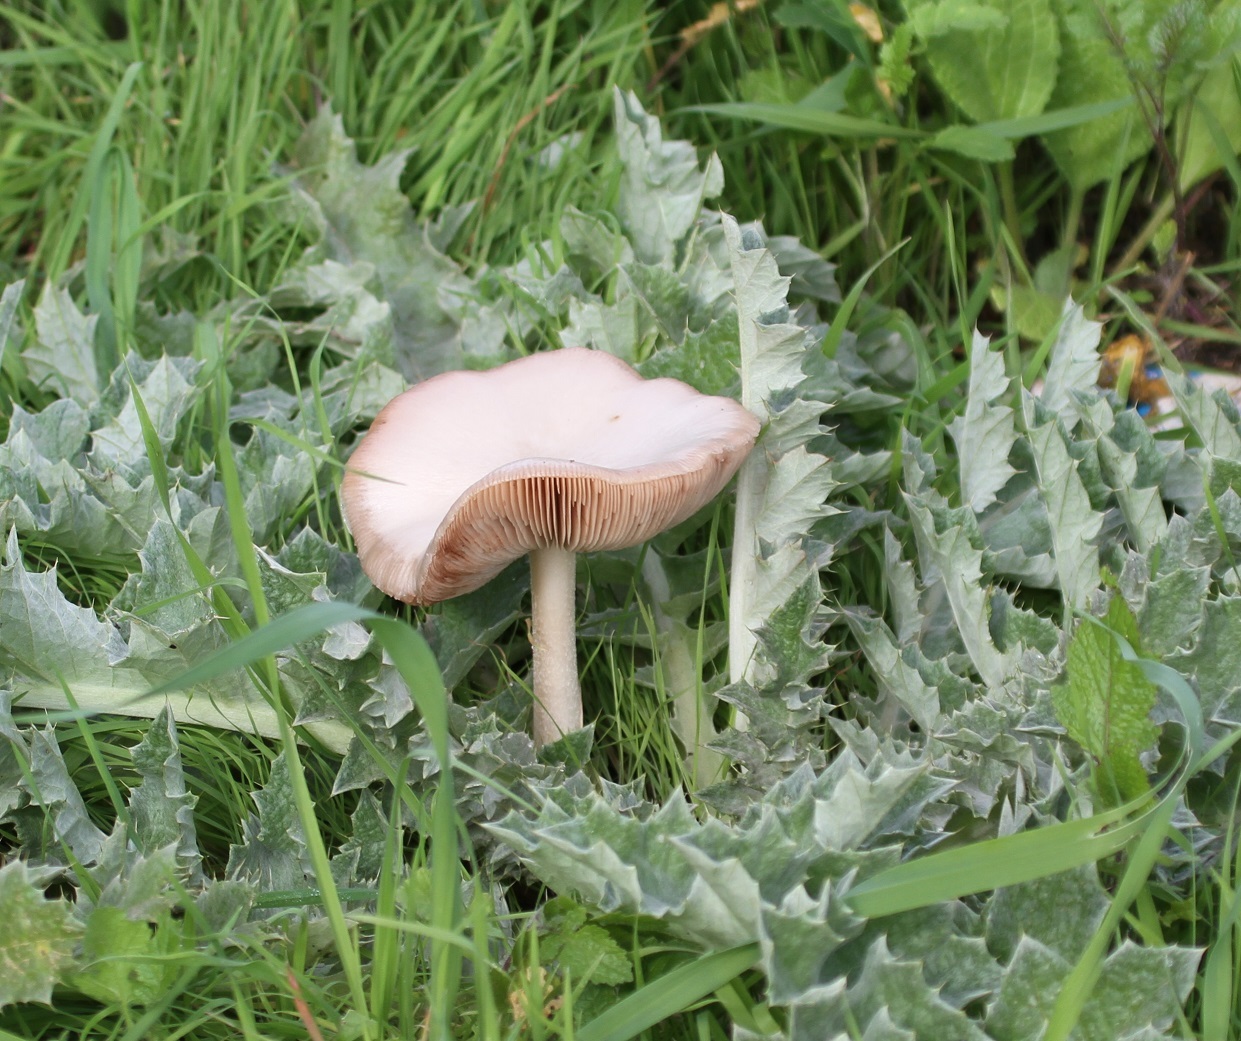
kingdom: Fungi
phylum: Basidiomycota
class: Agaricomycetes
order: Agaricales
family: Pluteaceae
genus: Volvopluteus
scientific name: Volvopluteus gloiocephalus
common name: Stubble rosegill
